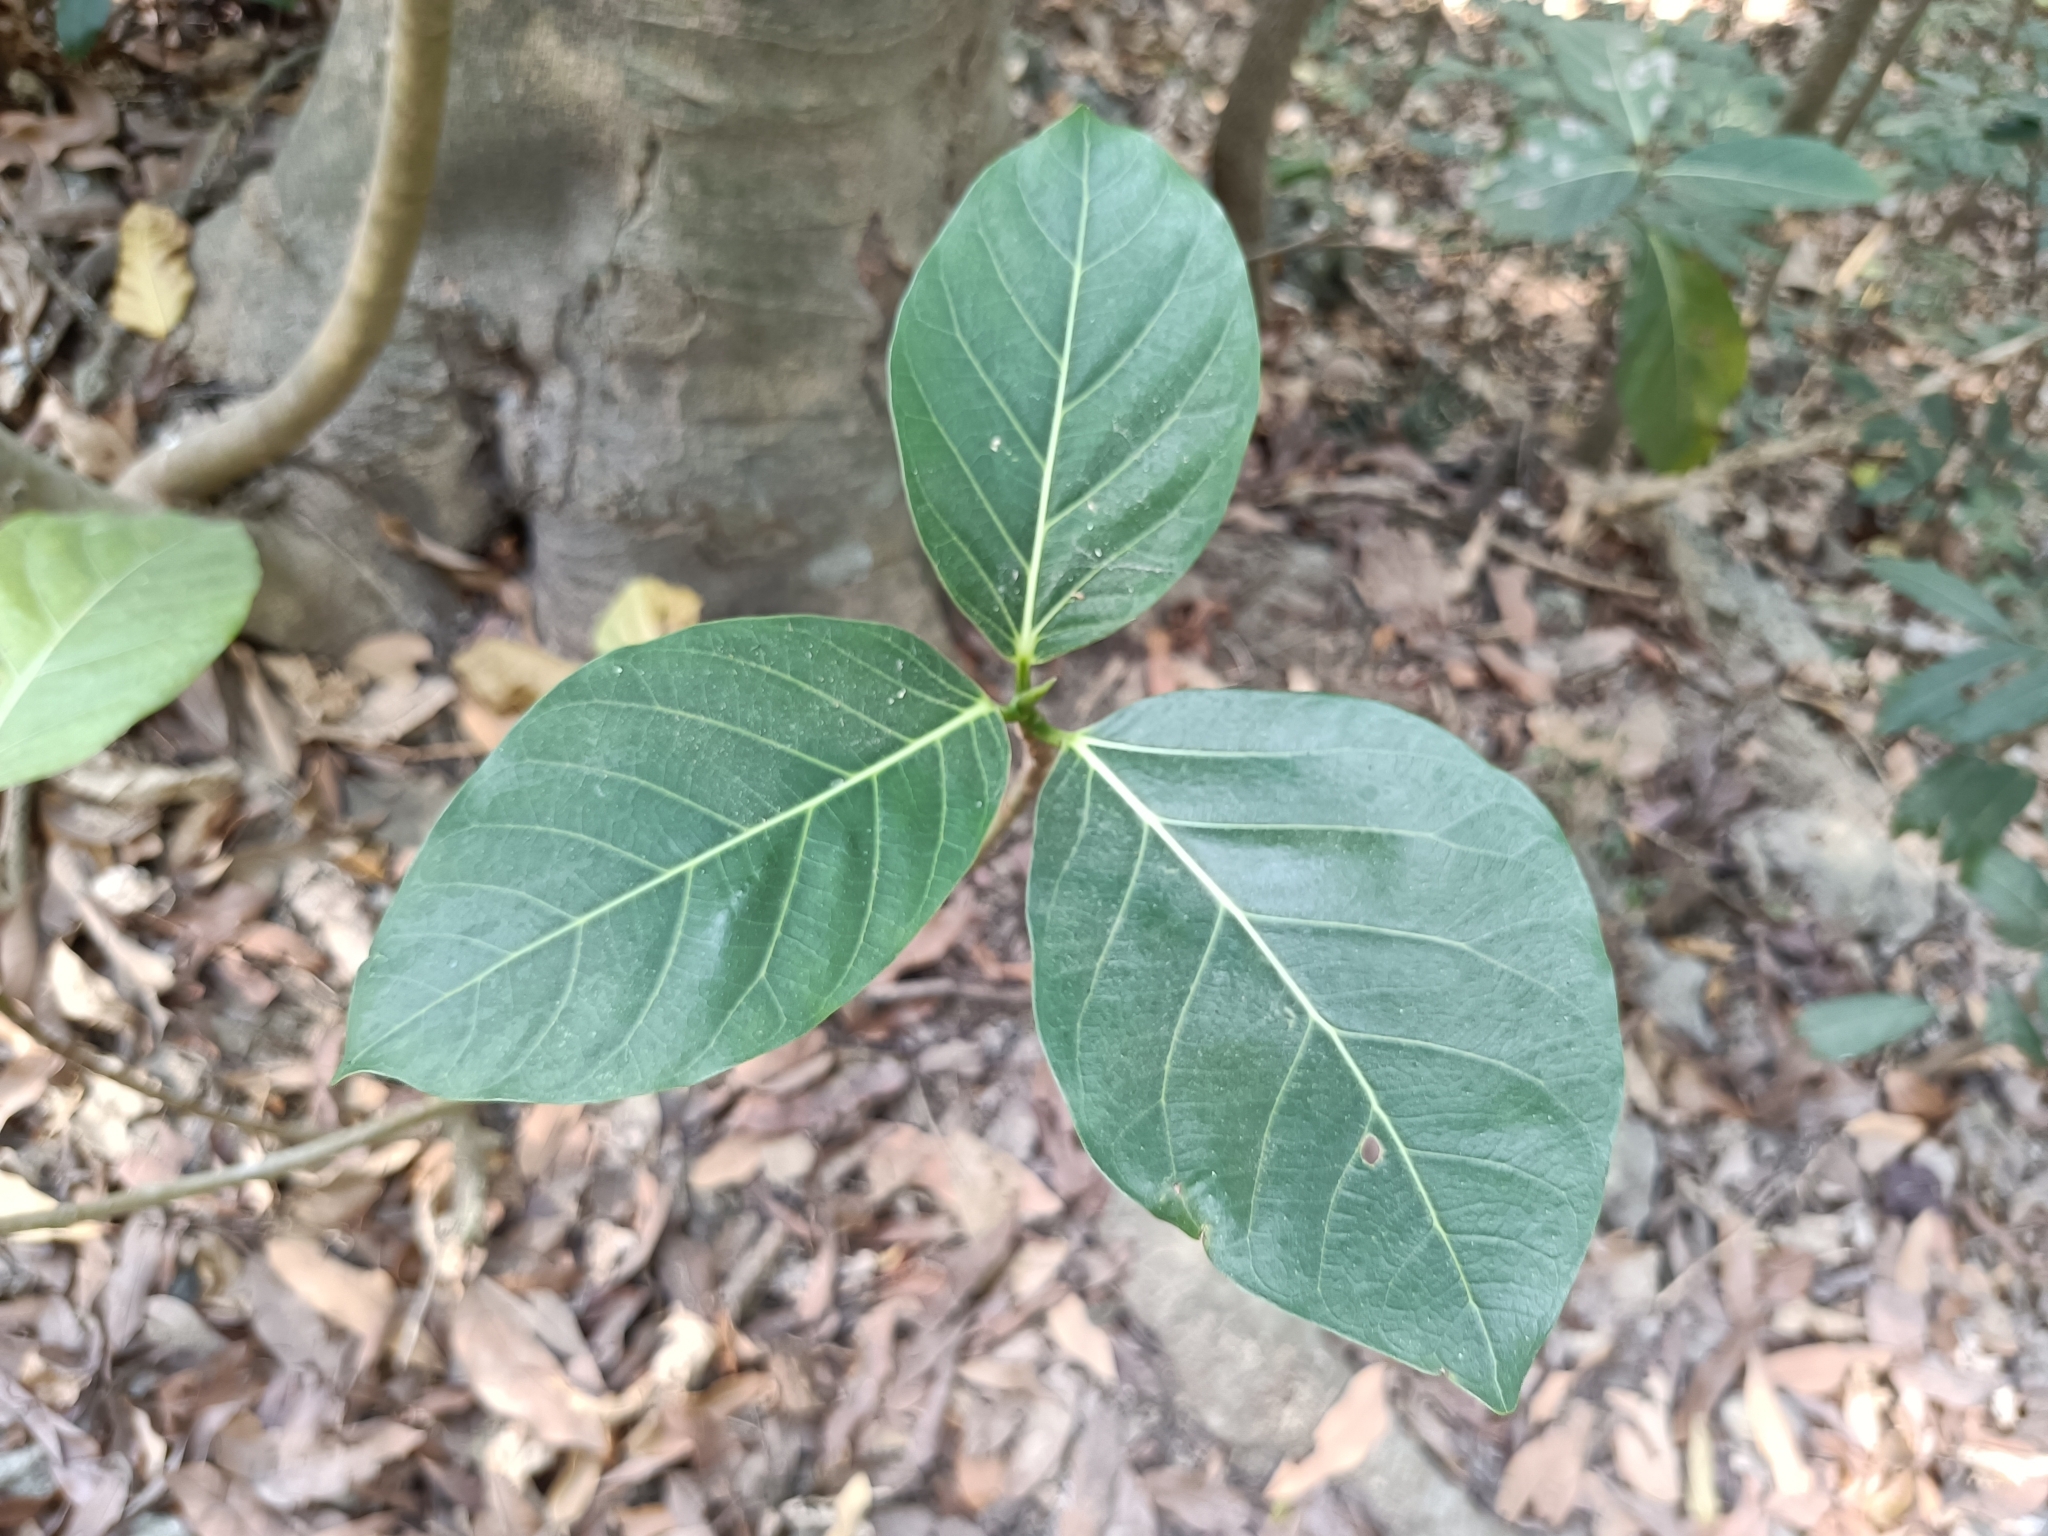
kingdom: Plantae
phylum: Tracheophyta
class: Magnoliopsida
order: Rosales
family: Moraceae
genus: Ficus
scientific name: Ficus septica
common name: Septic fig
